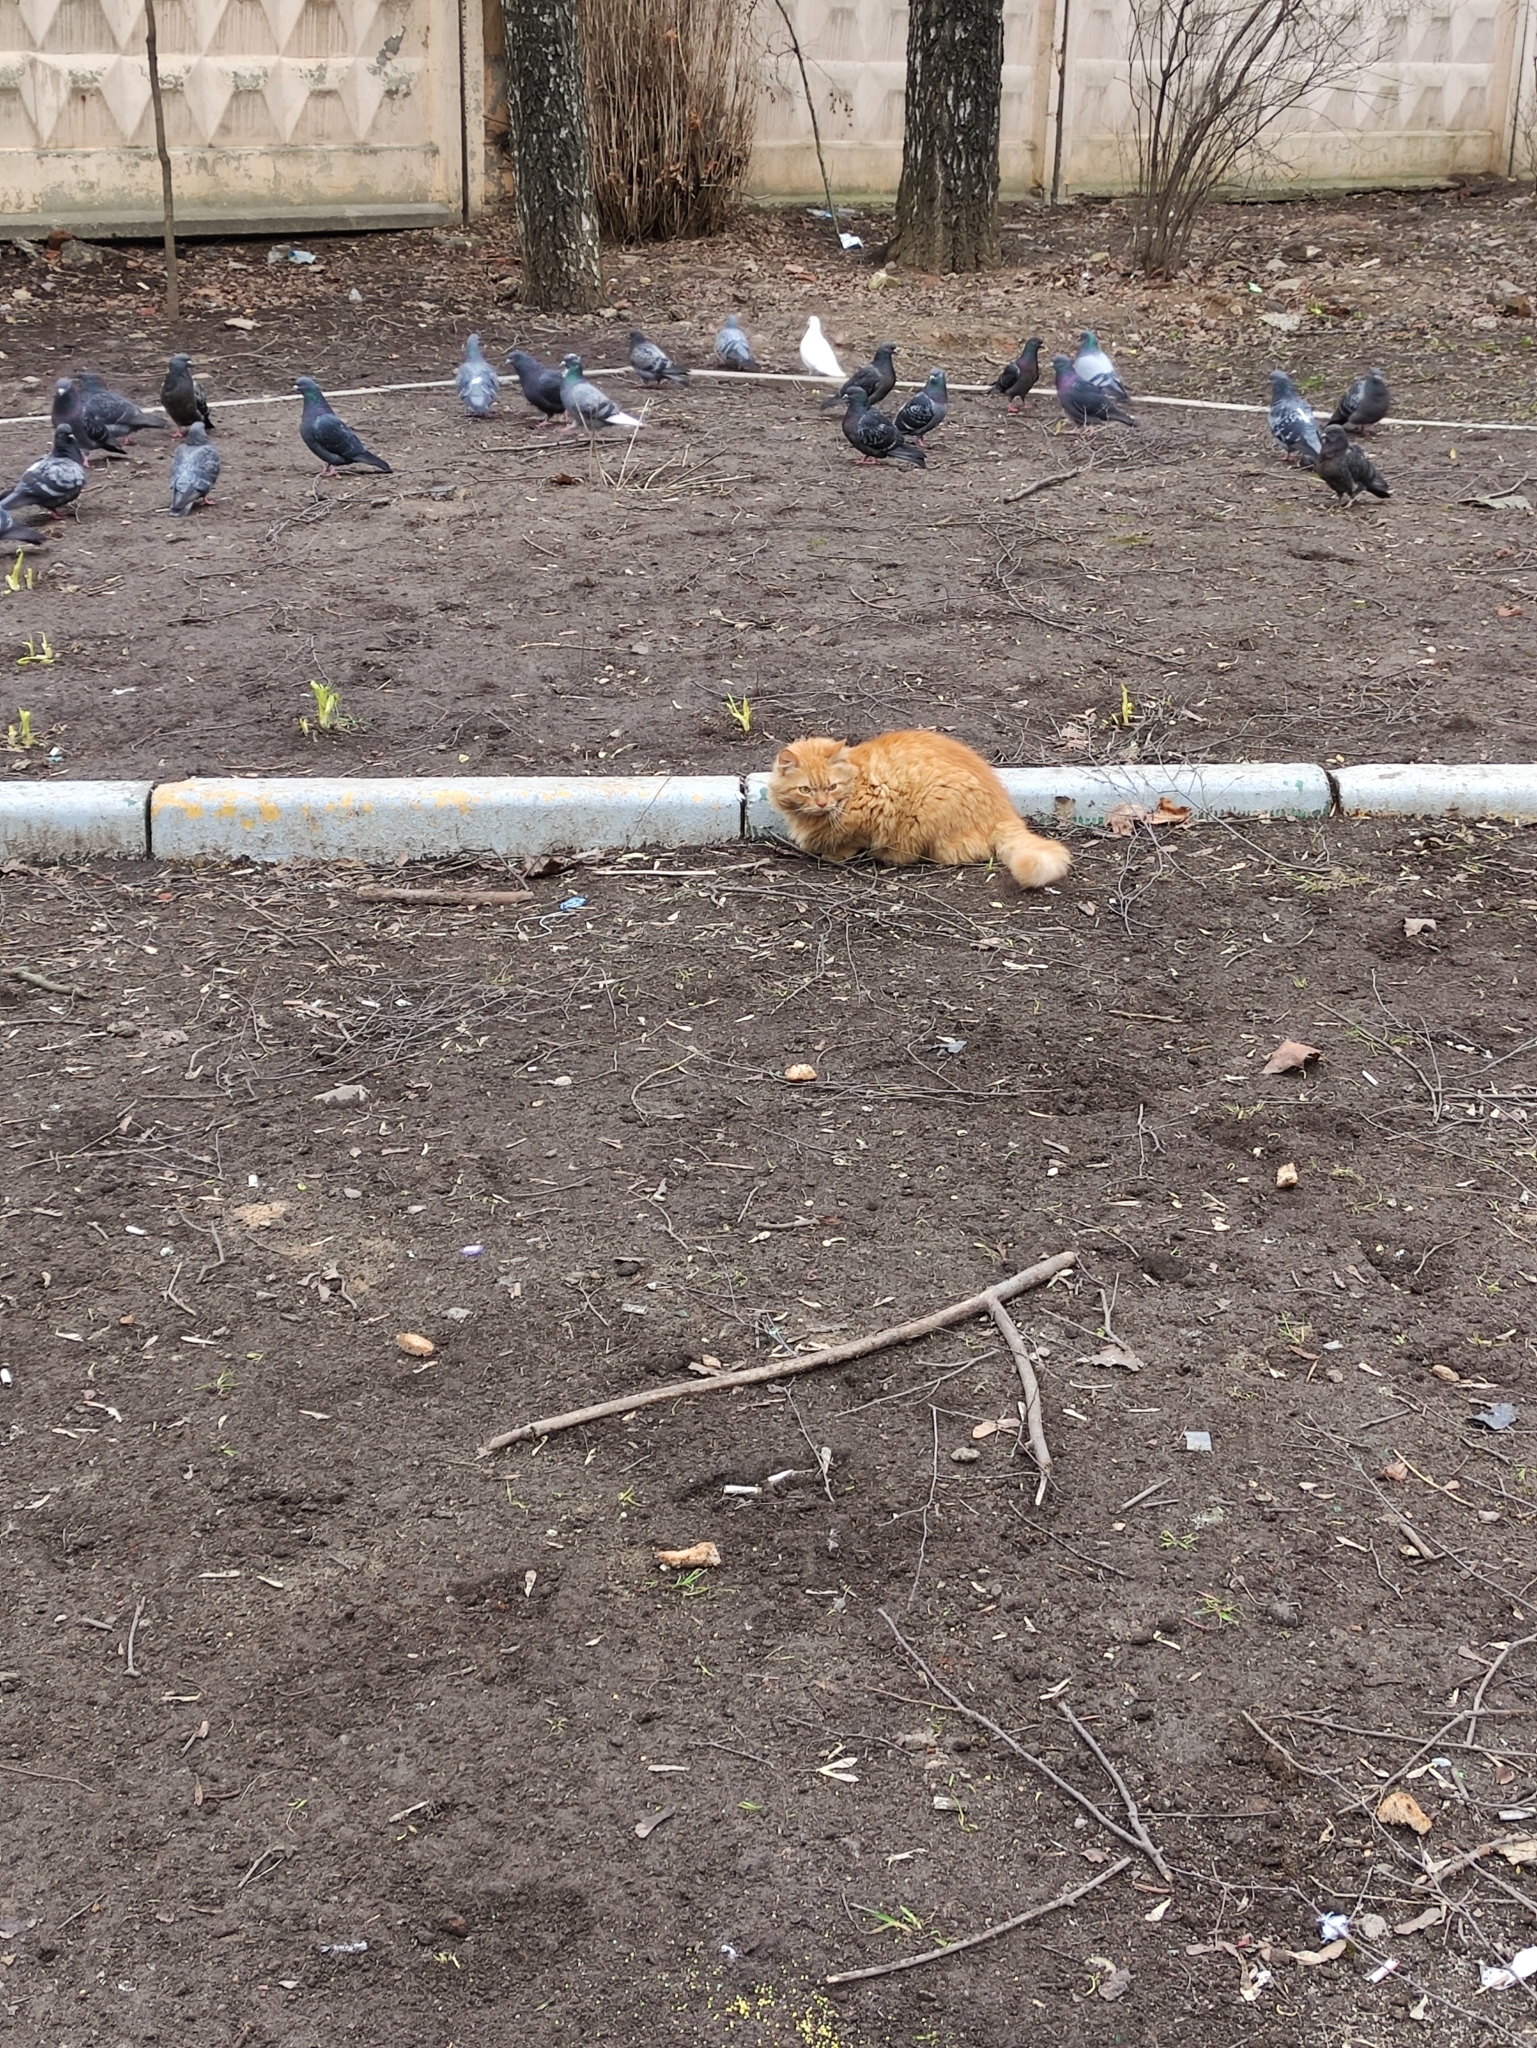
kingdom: Animalia
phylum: Chordata
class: Mammalia
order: Carnivora
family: Felidae
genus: Felis
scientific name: Felis catus
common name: Domestic cat
